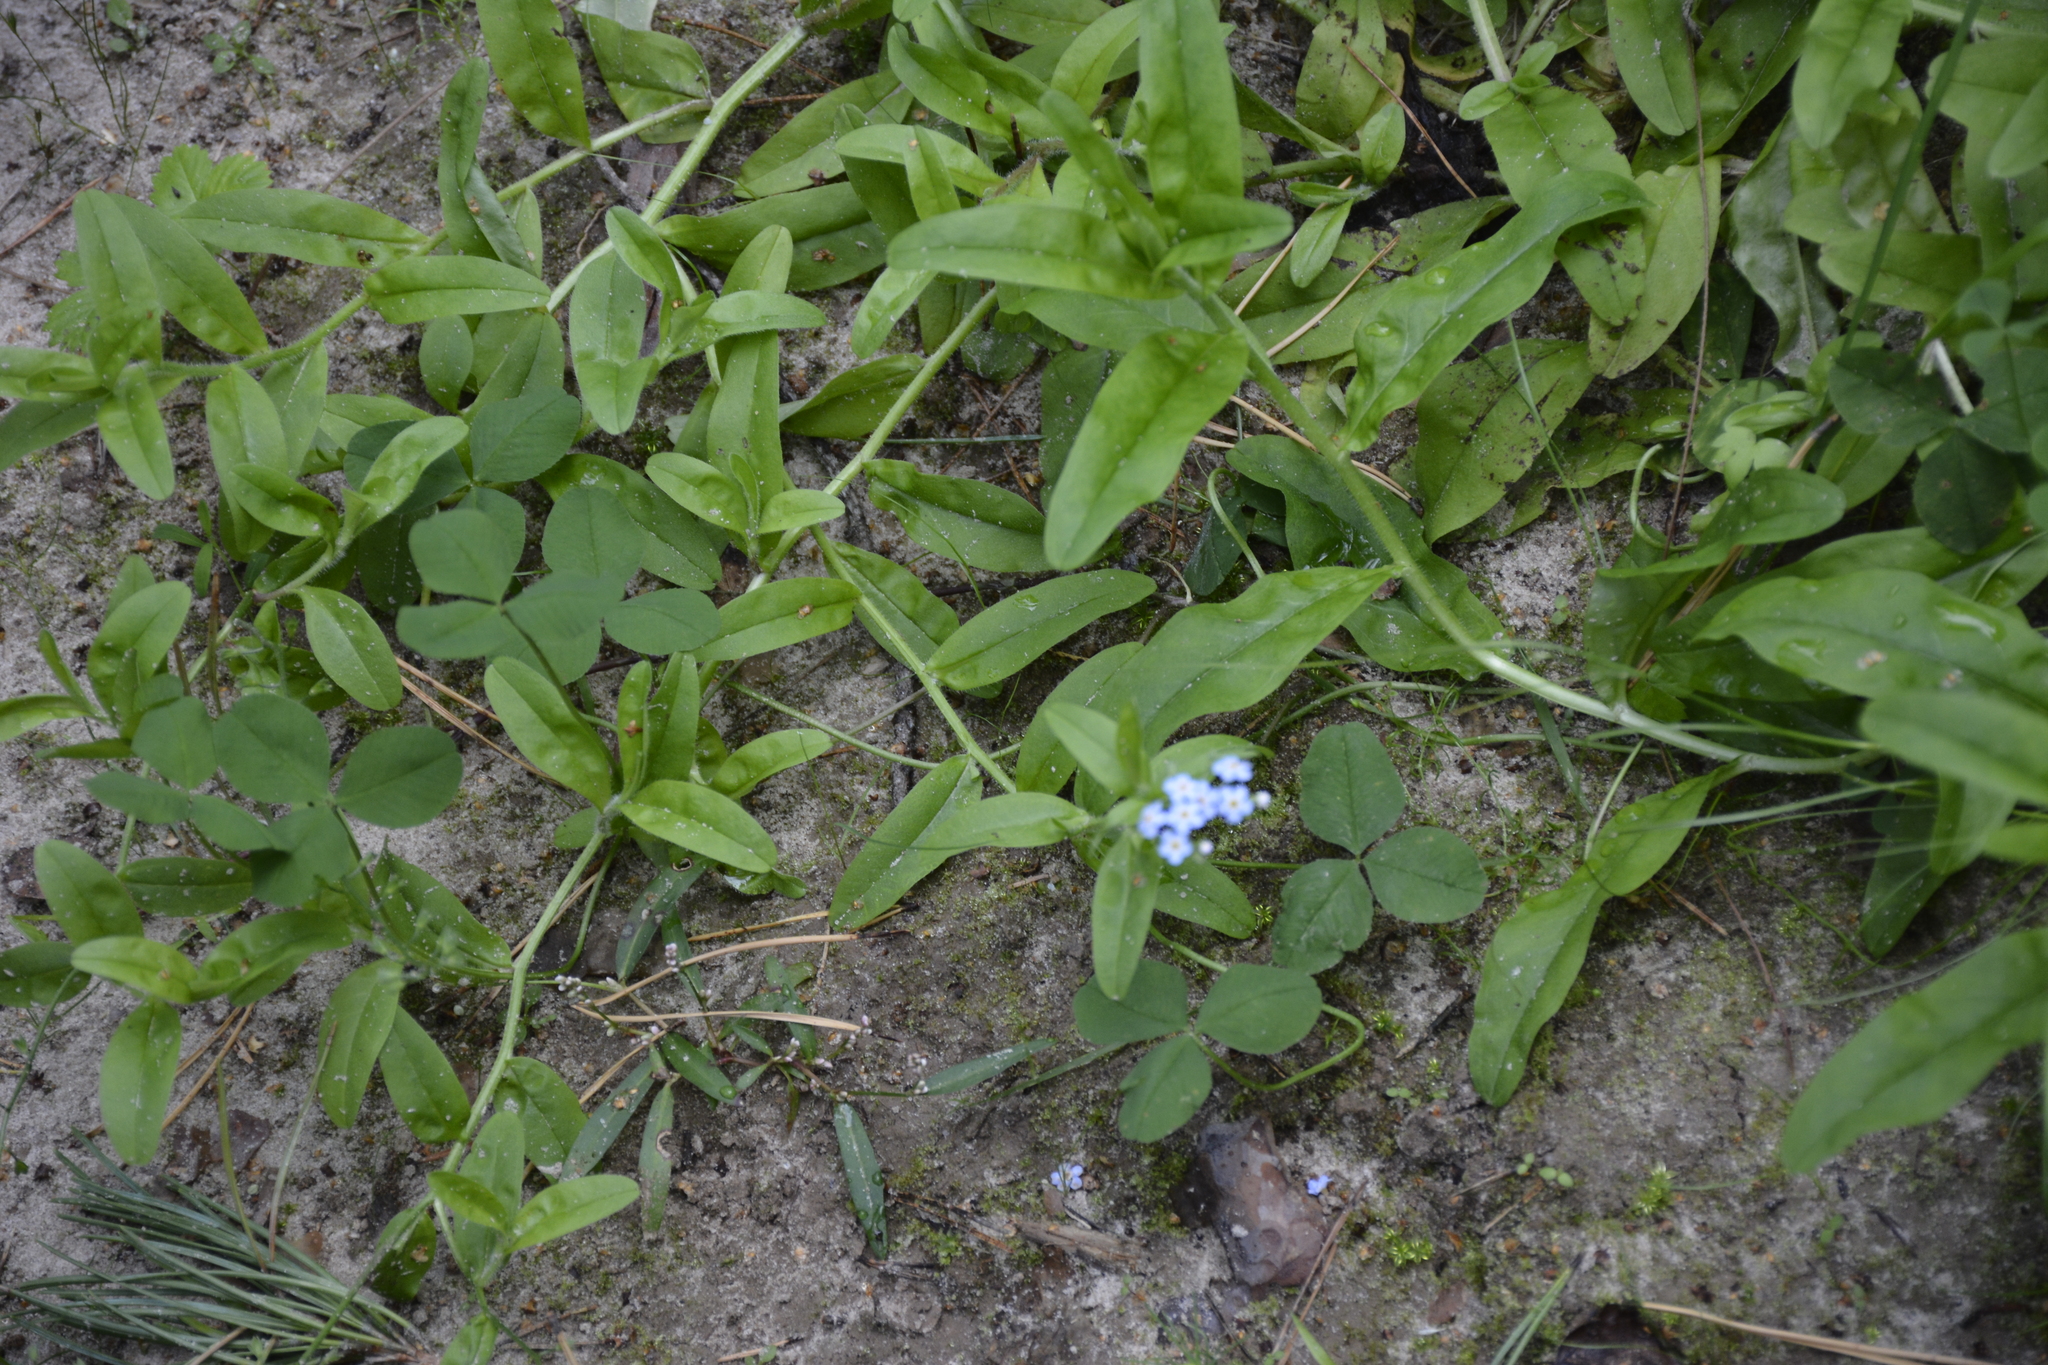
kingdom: Plantae
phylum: Tracheophyta
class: Magnoliopsida
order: Boraginales
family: Boraginaceae
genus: Myosotis
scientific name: Myosotis scorpioides
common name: Water forget-me-not
